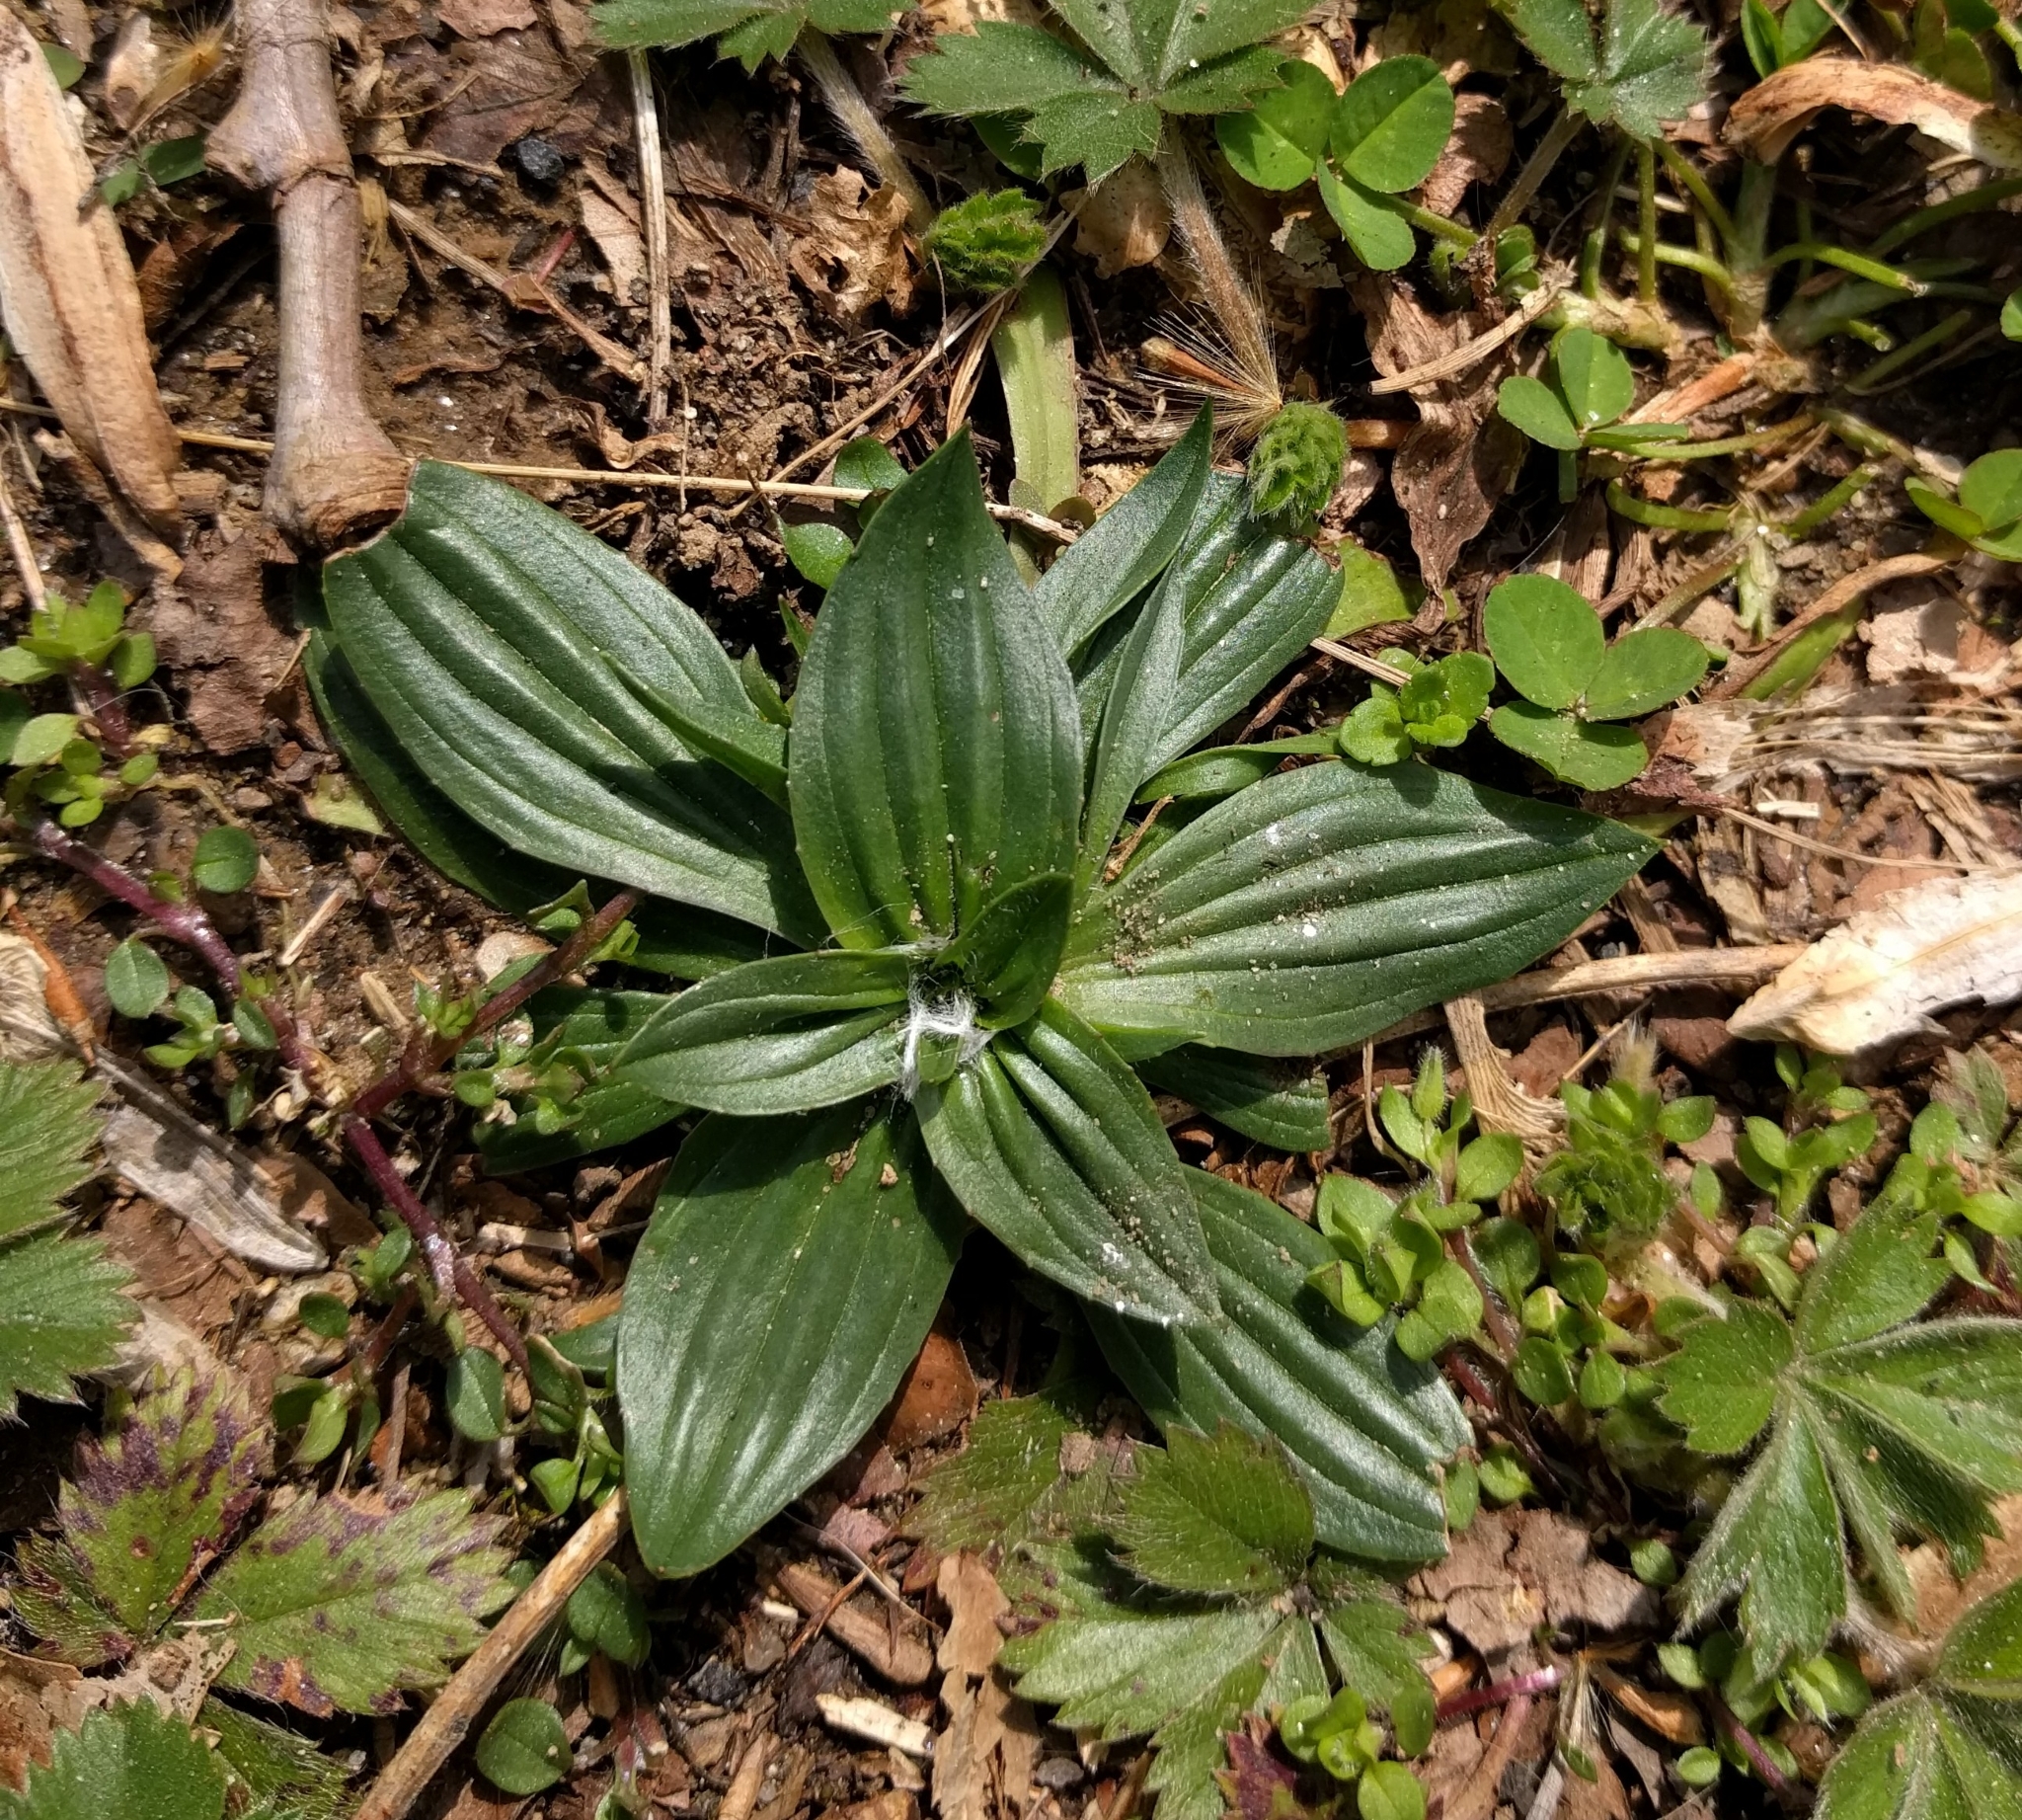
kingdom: Plantae
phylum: Tracheophyta
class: Magnoliopsida
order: Lamiales
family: Plantaginaceae
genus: Plantago
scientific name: Plantago lanceolata
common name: Ribwort plantain
